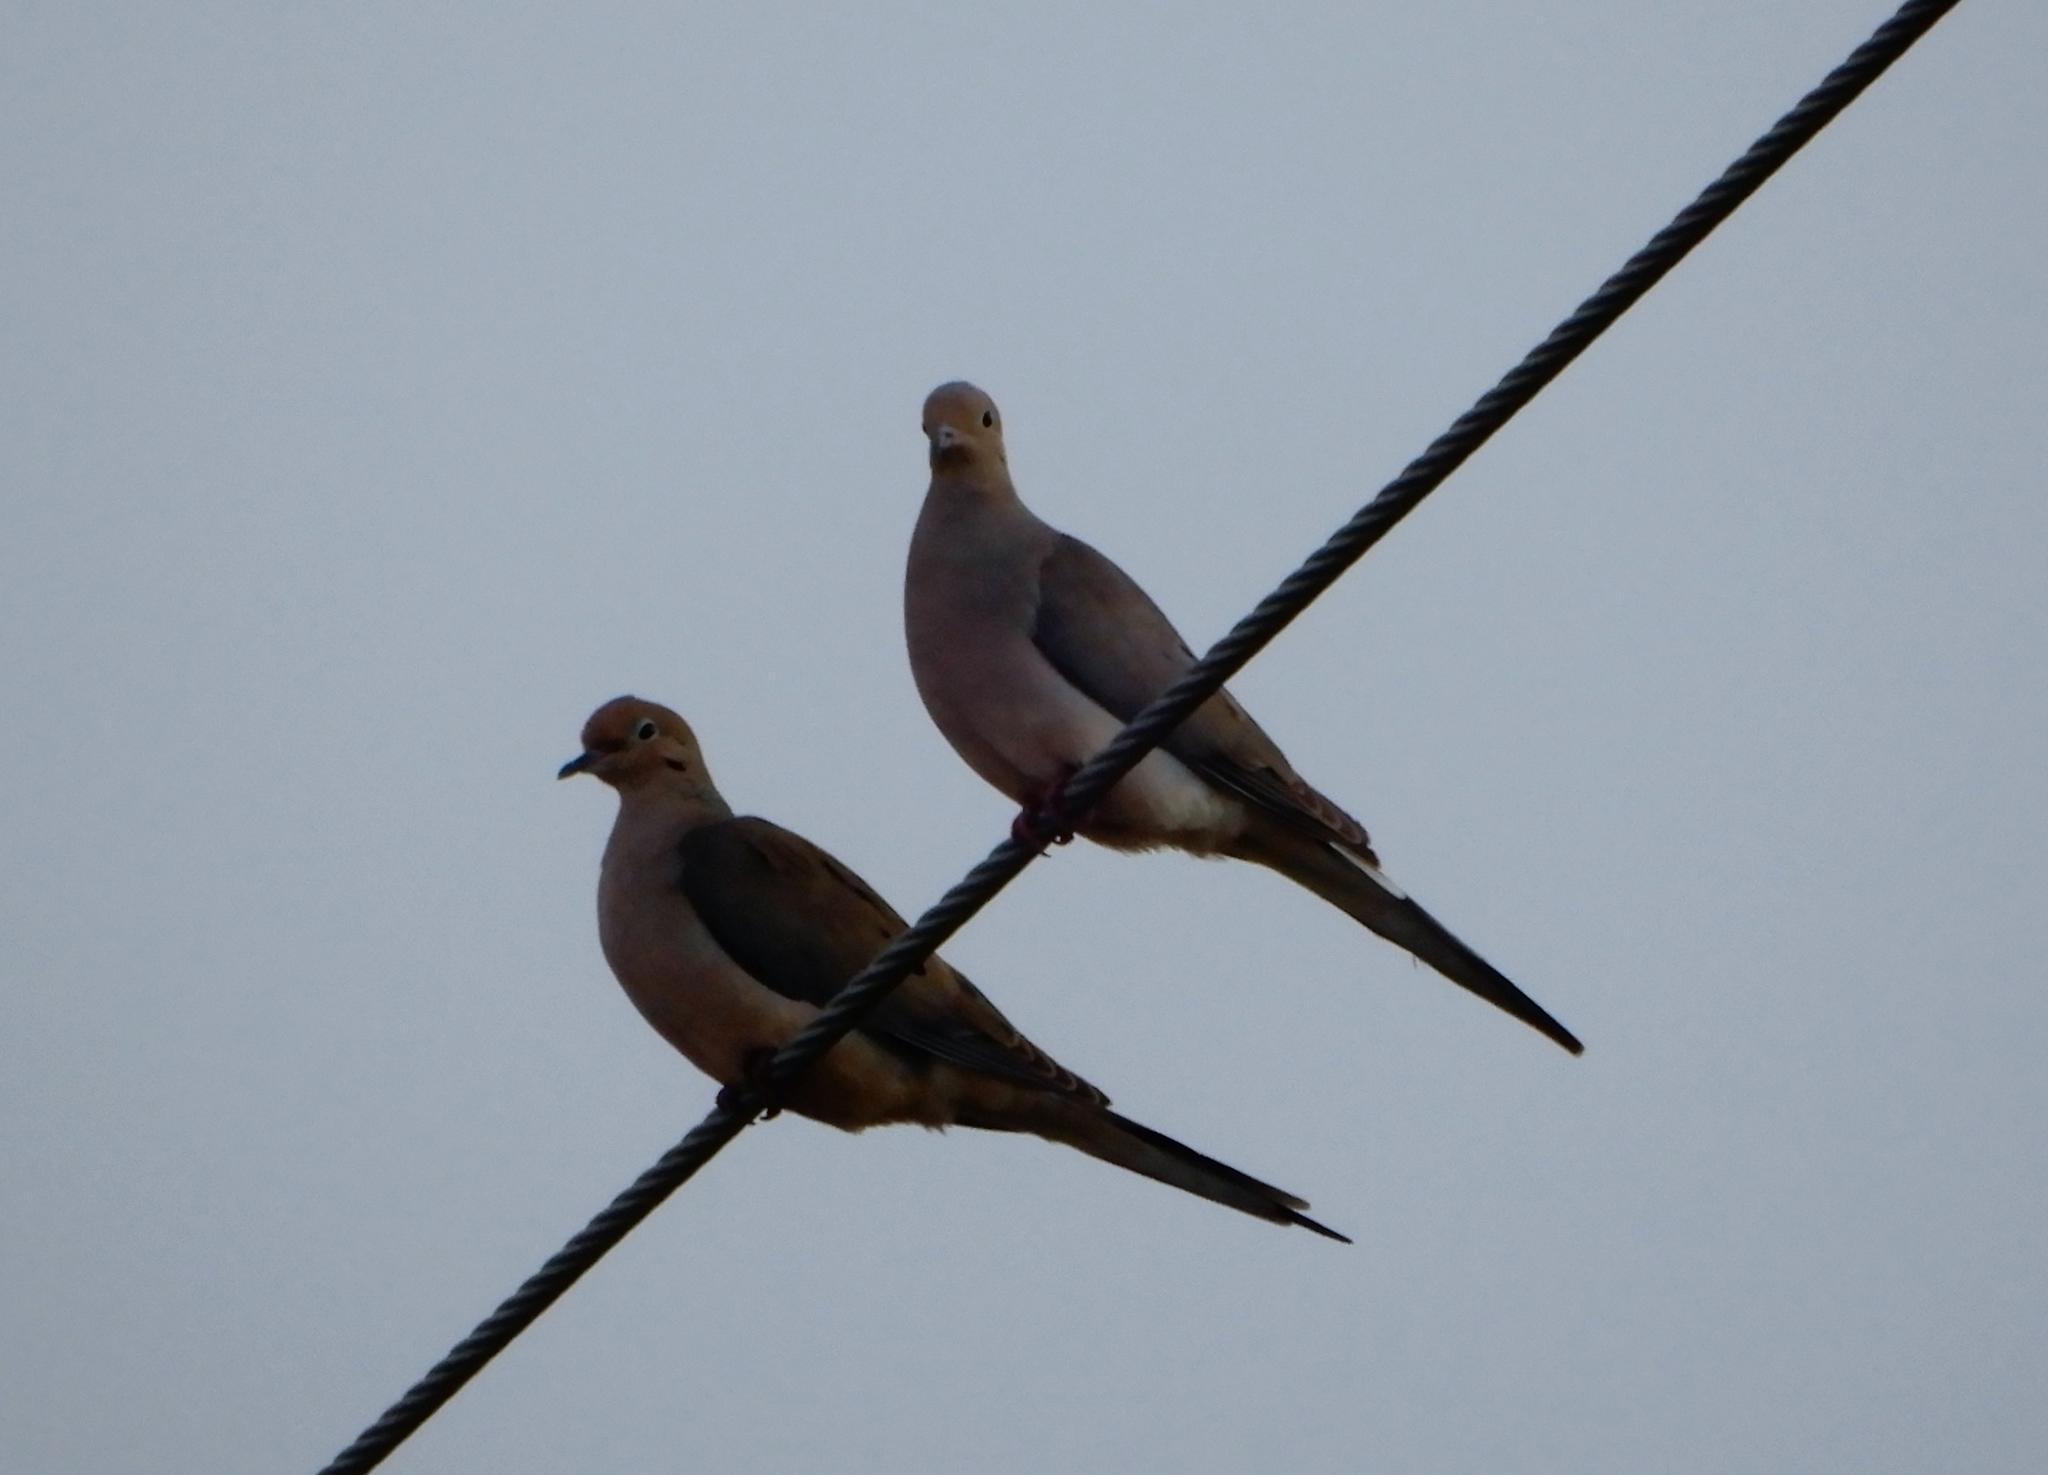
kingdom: Animalia
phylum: Chordata
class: Aves
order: Columbiformes
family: Columbidae
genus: Zenaida
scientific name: Zenaida macroura
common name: Mourning dove
